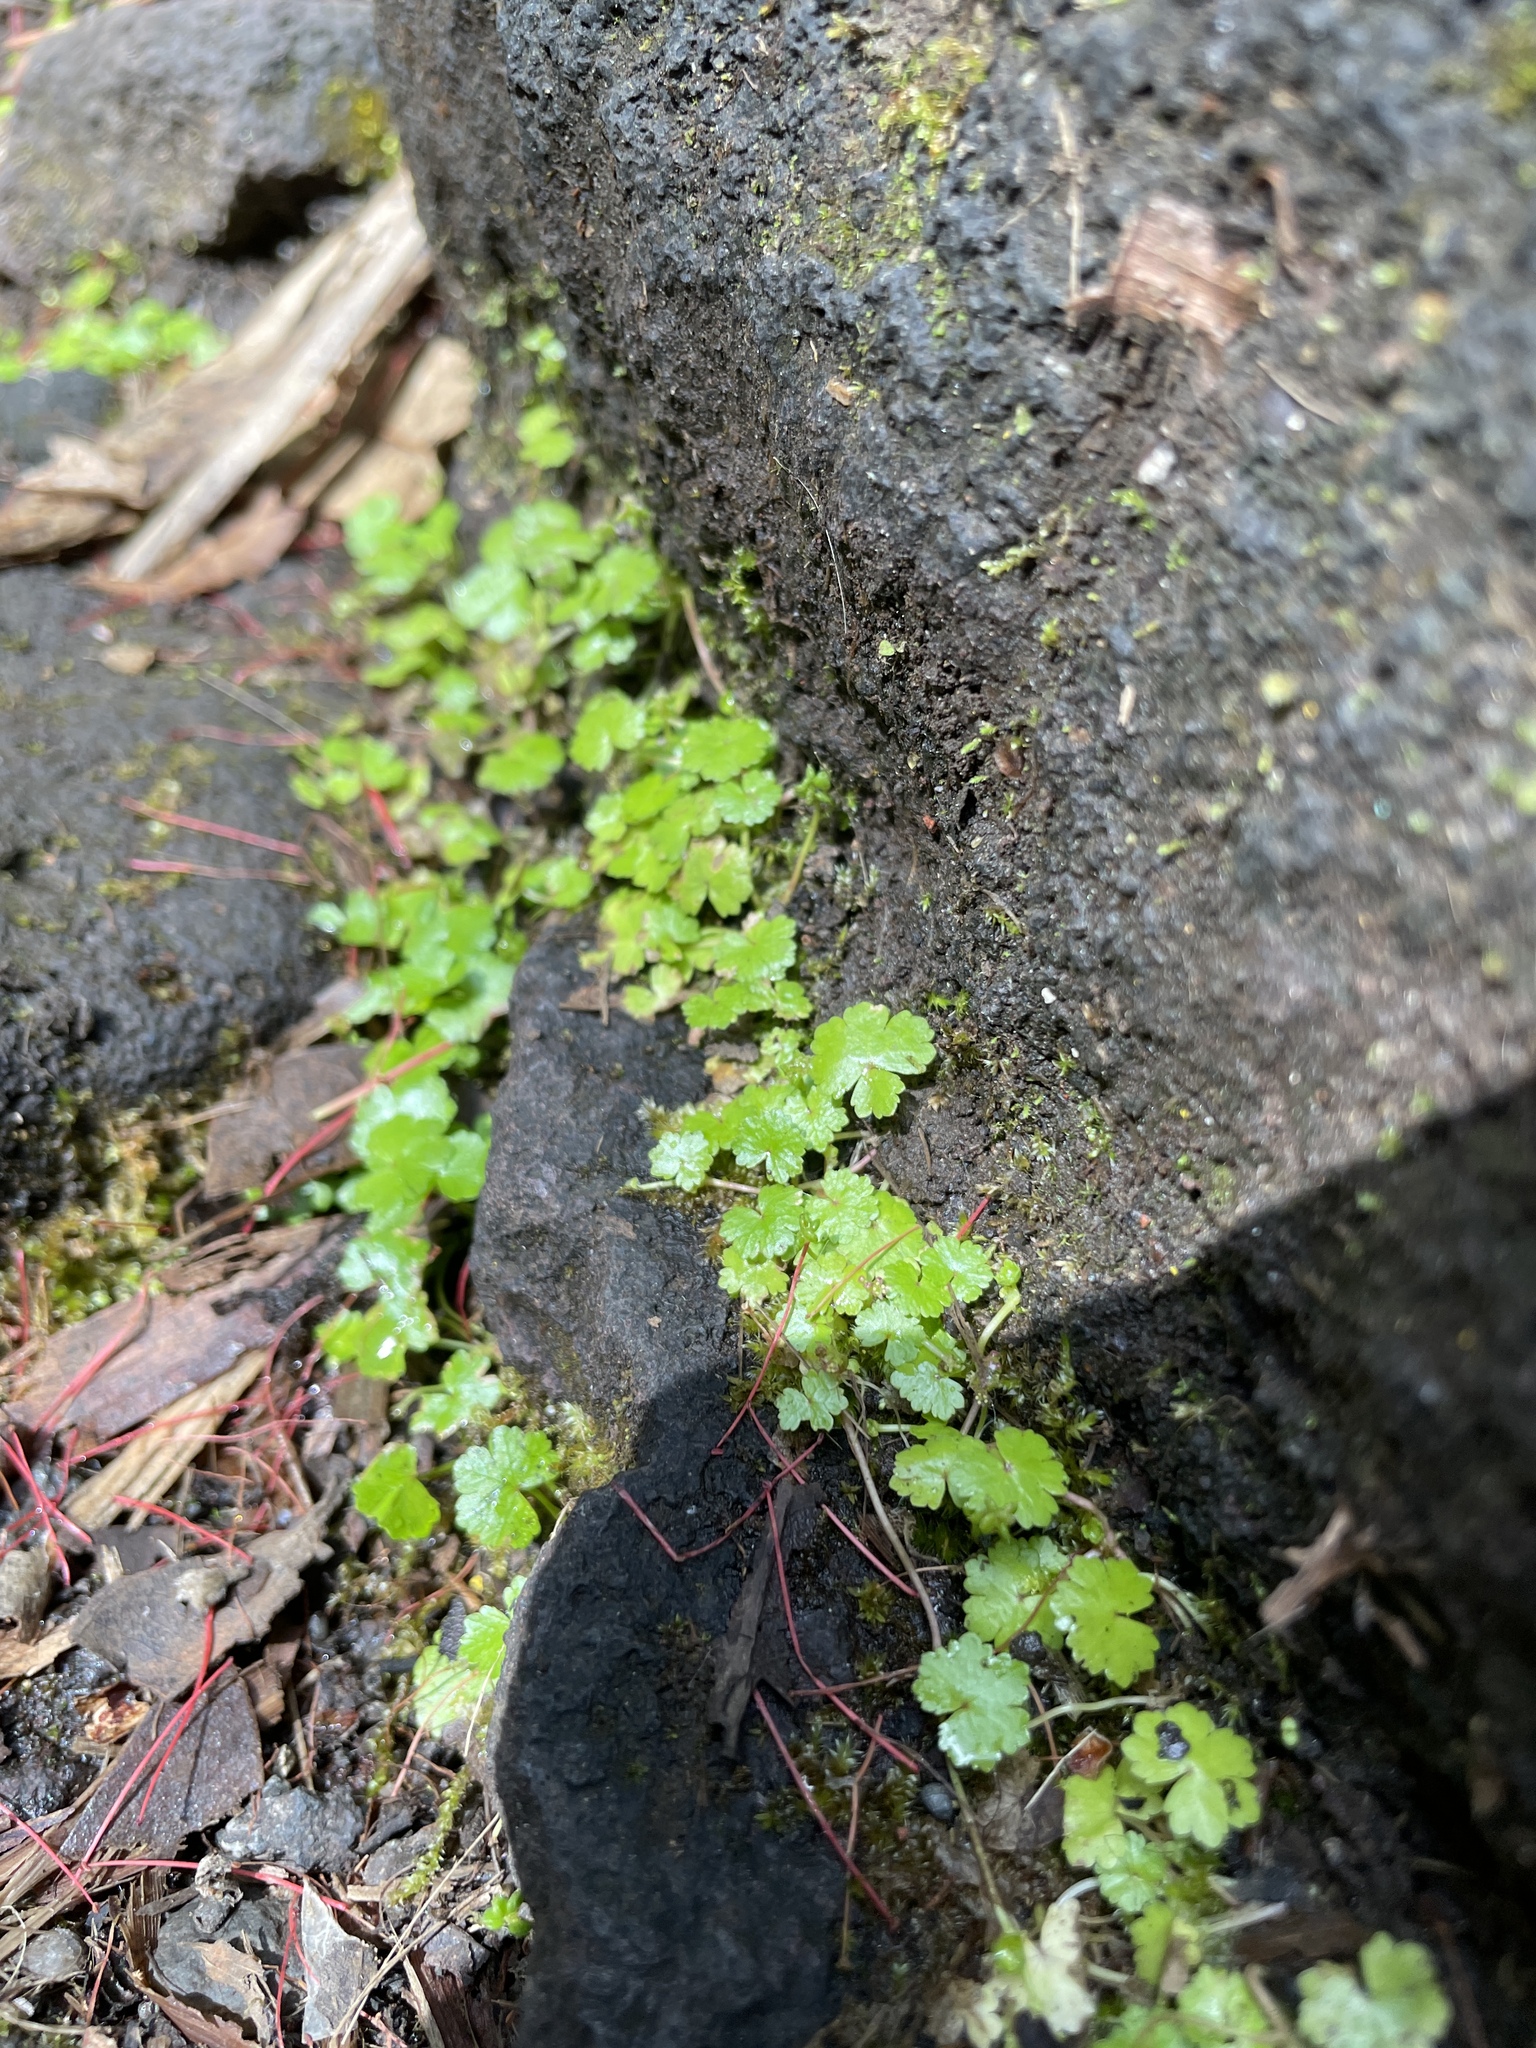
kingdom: Plantae
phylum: Tracheophyta
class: Magnoliopsida
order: Apiales
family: Araliaceae
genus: Hydrocotyle
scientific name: Hydrocotyle sibthorpioides
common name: Lawn marshpennywort
